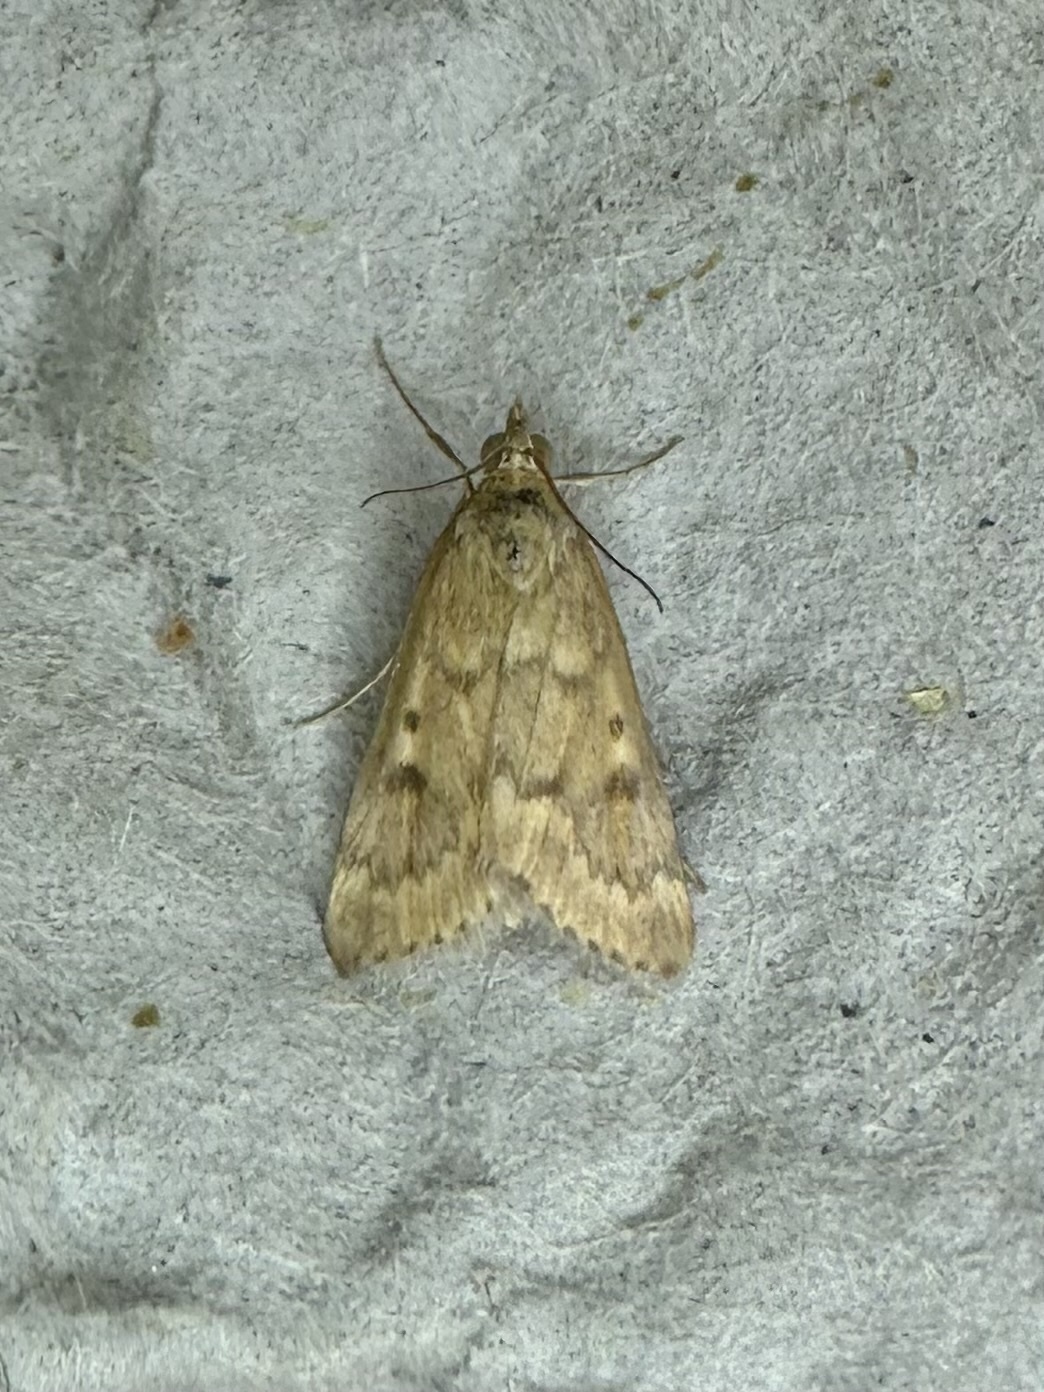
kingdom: Animalia
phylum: Arthropoda
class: Insecta
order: Lepidoptera
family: Crambidae
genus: Achyra
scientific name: Achyra rantalis
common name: Garden webworm
